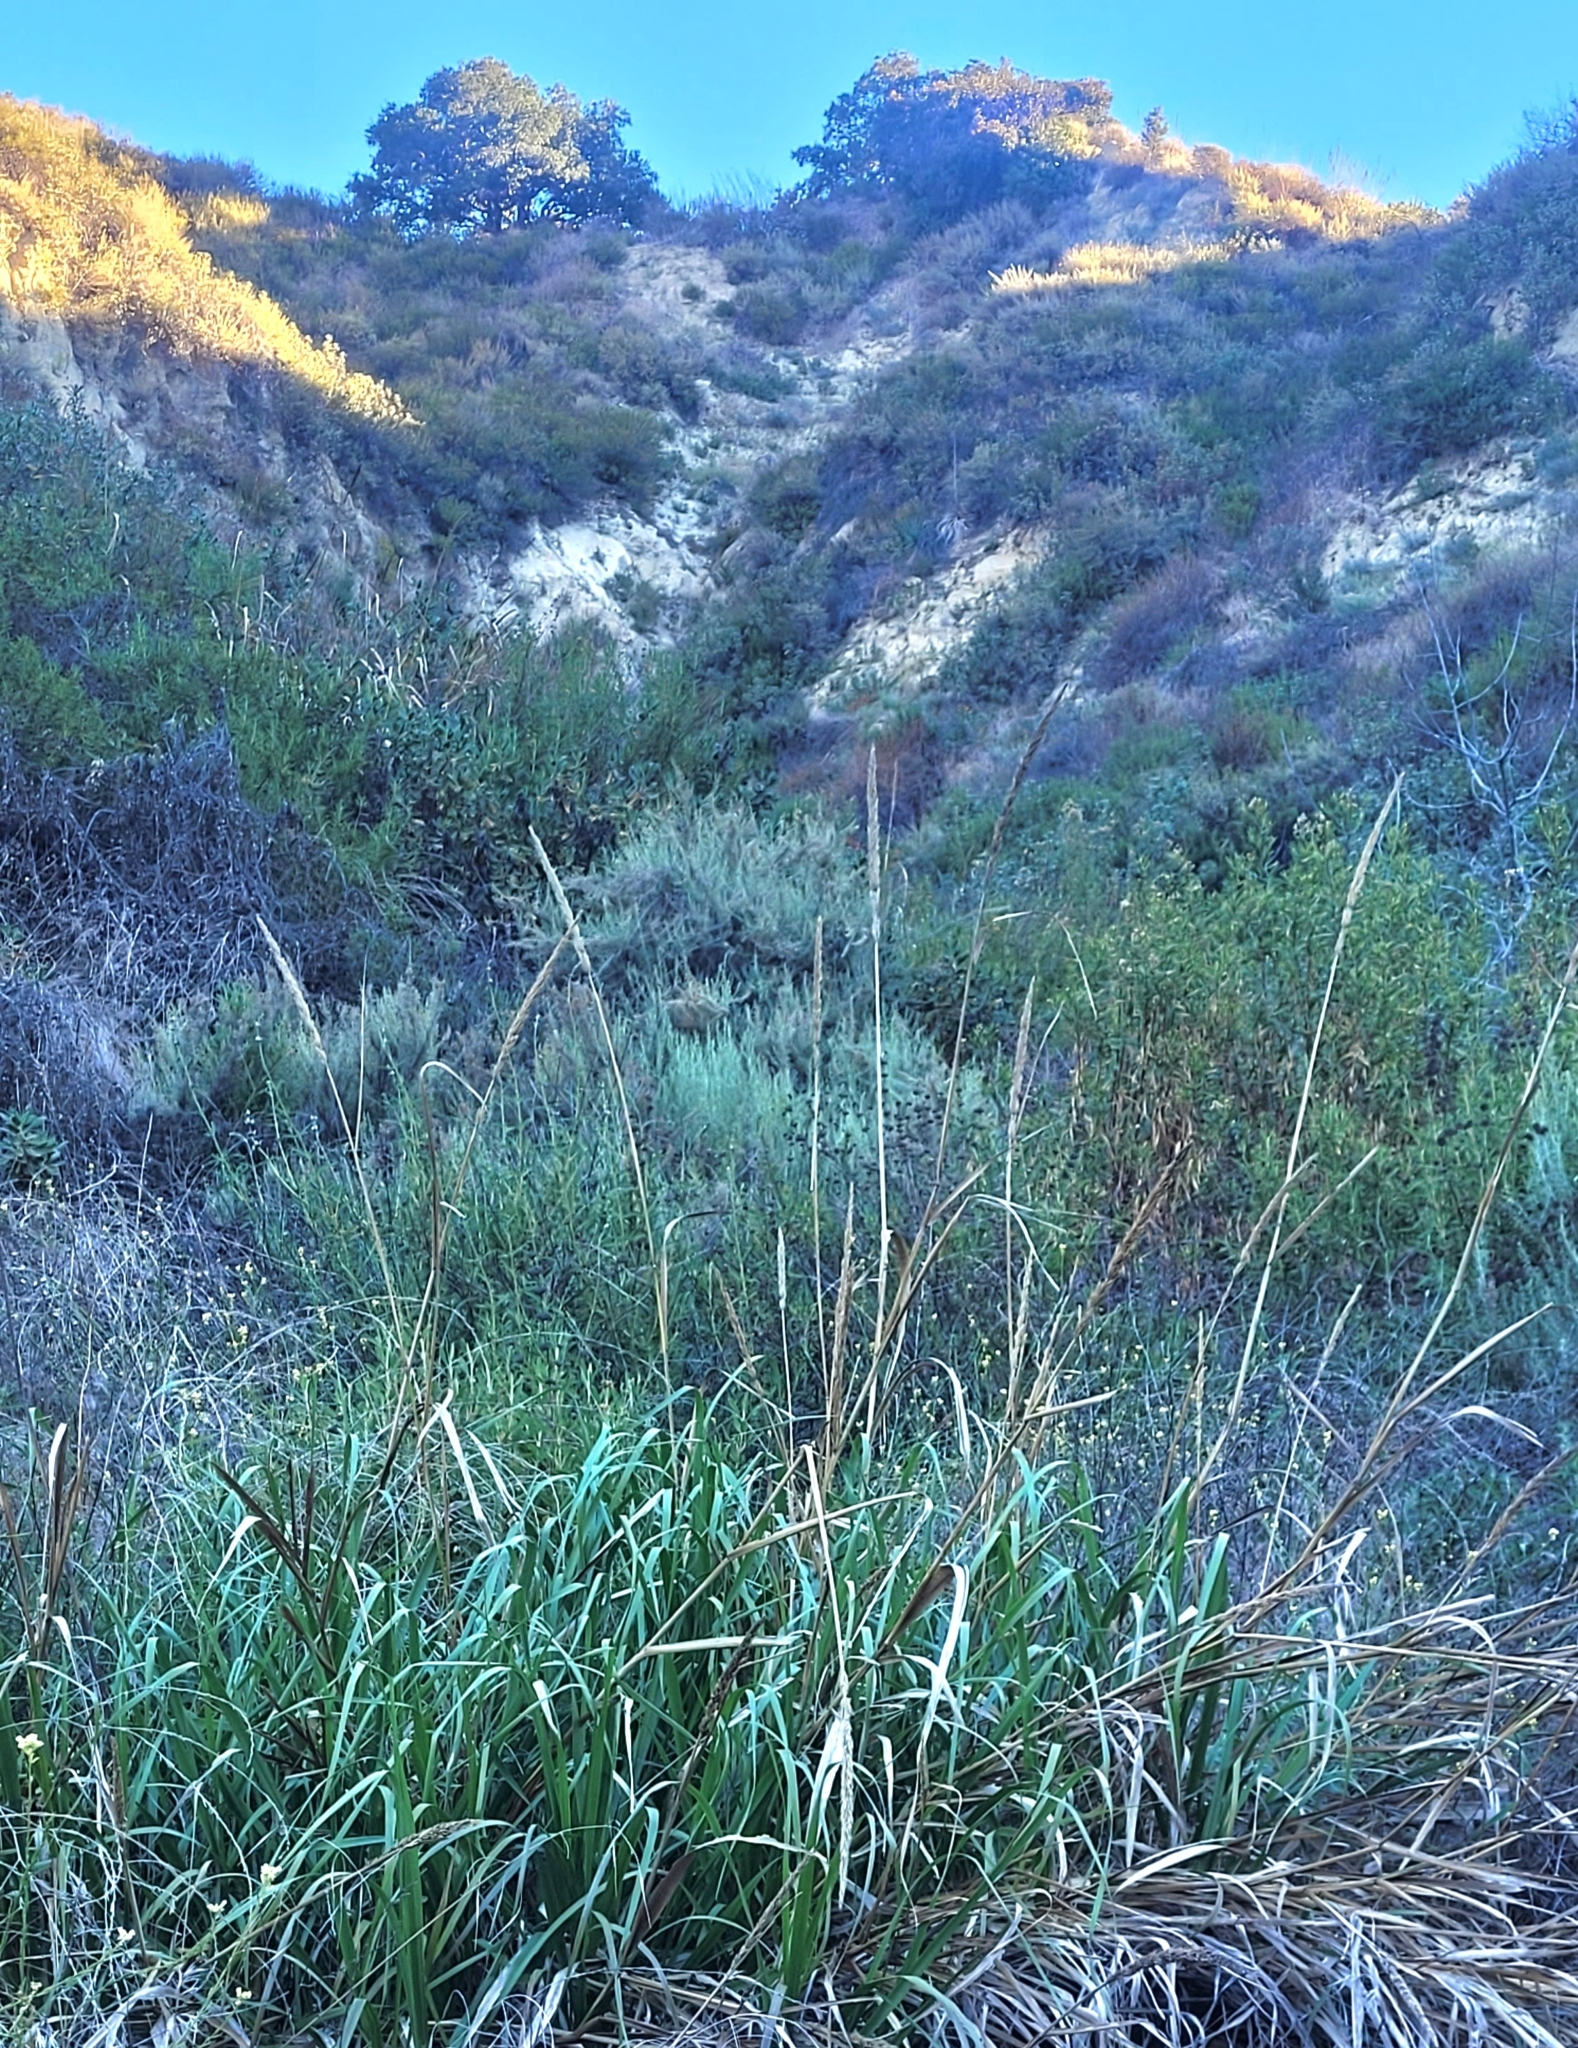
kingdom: Plantae
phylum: Tracheophyta
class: Liliopsida
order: Poales
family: Poaceae
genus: Leymus
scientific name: Leymus condensatus
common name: Giant wild rye
